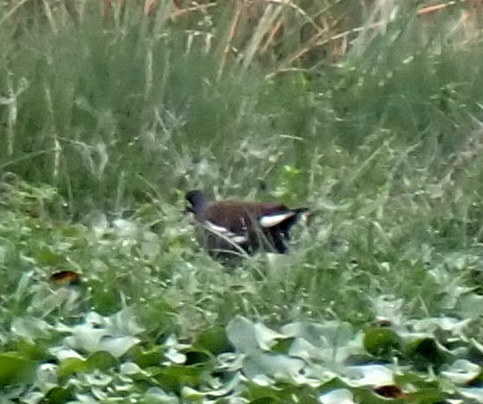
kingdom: Animalia
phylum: Chordata
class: Aves
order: Gruiformes
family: Rallidae
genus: Gallinula
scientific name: Gallinula chloropus
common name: Common moorhen
